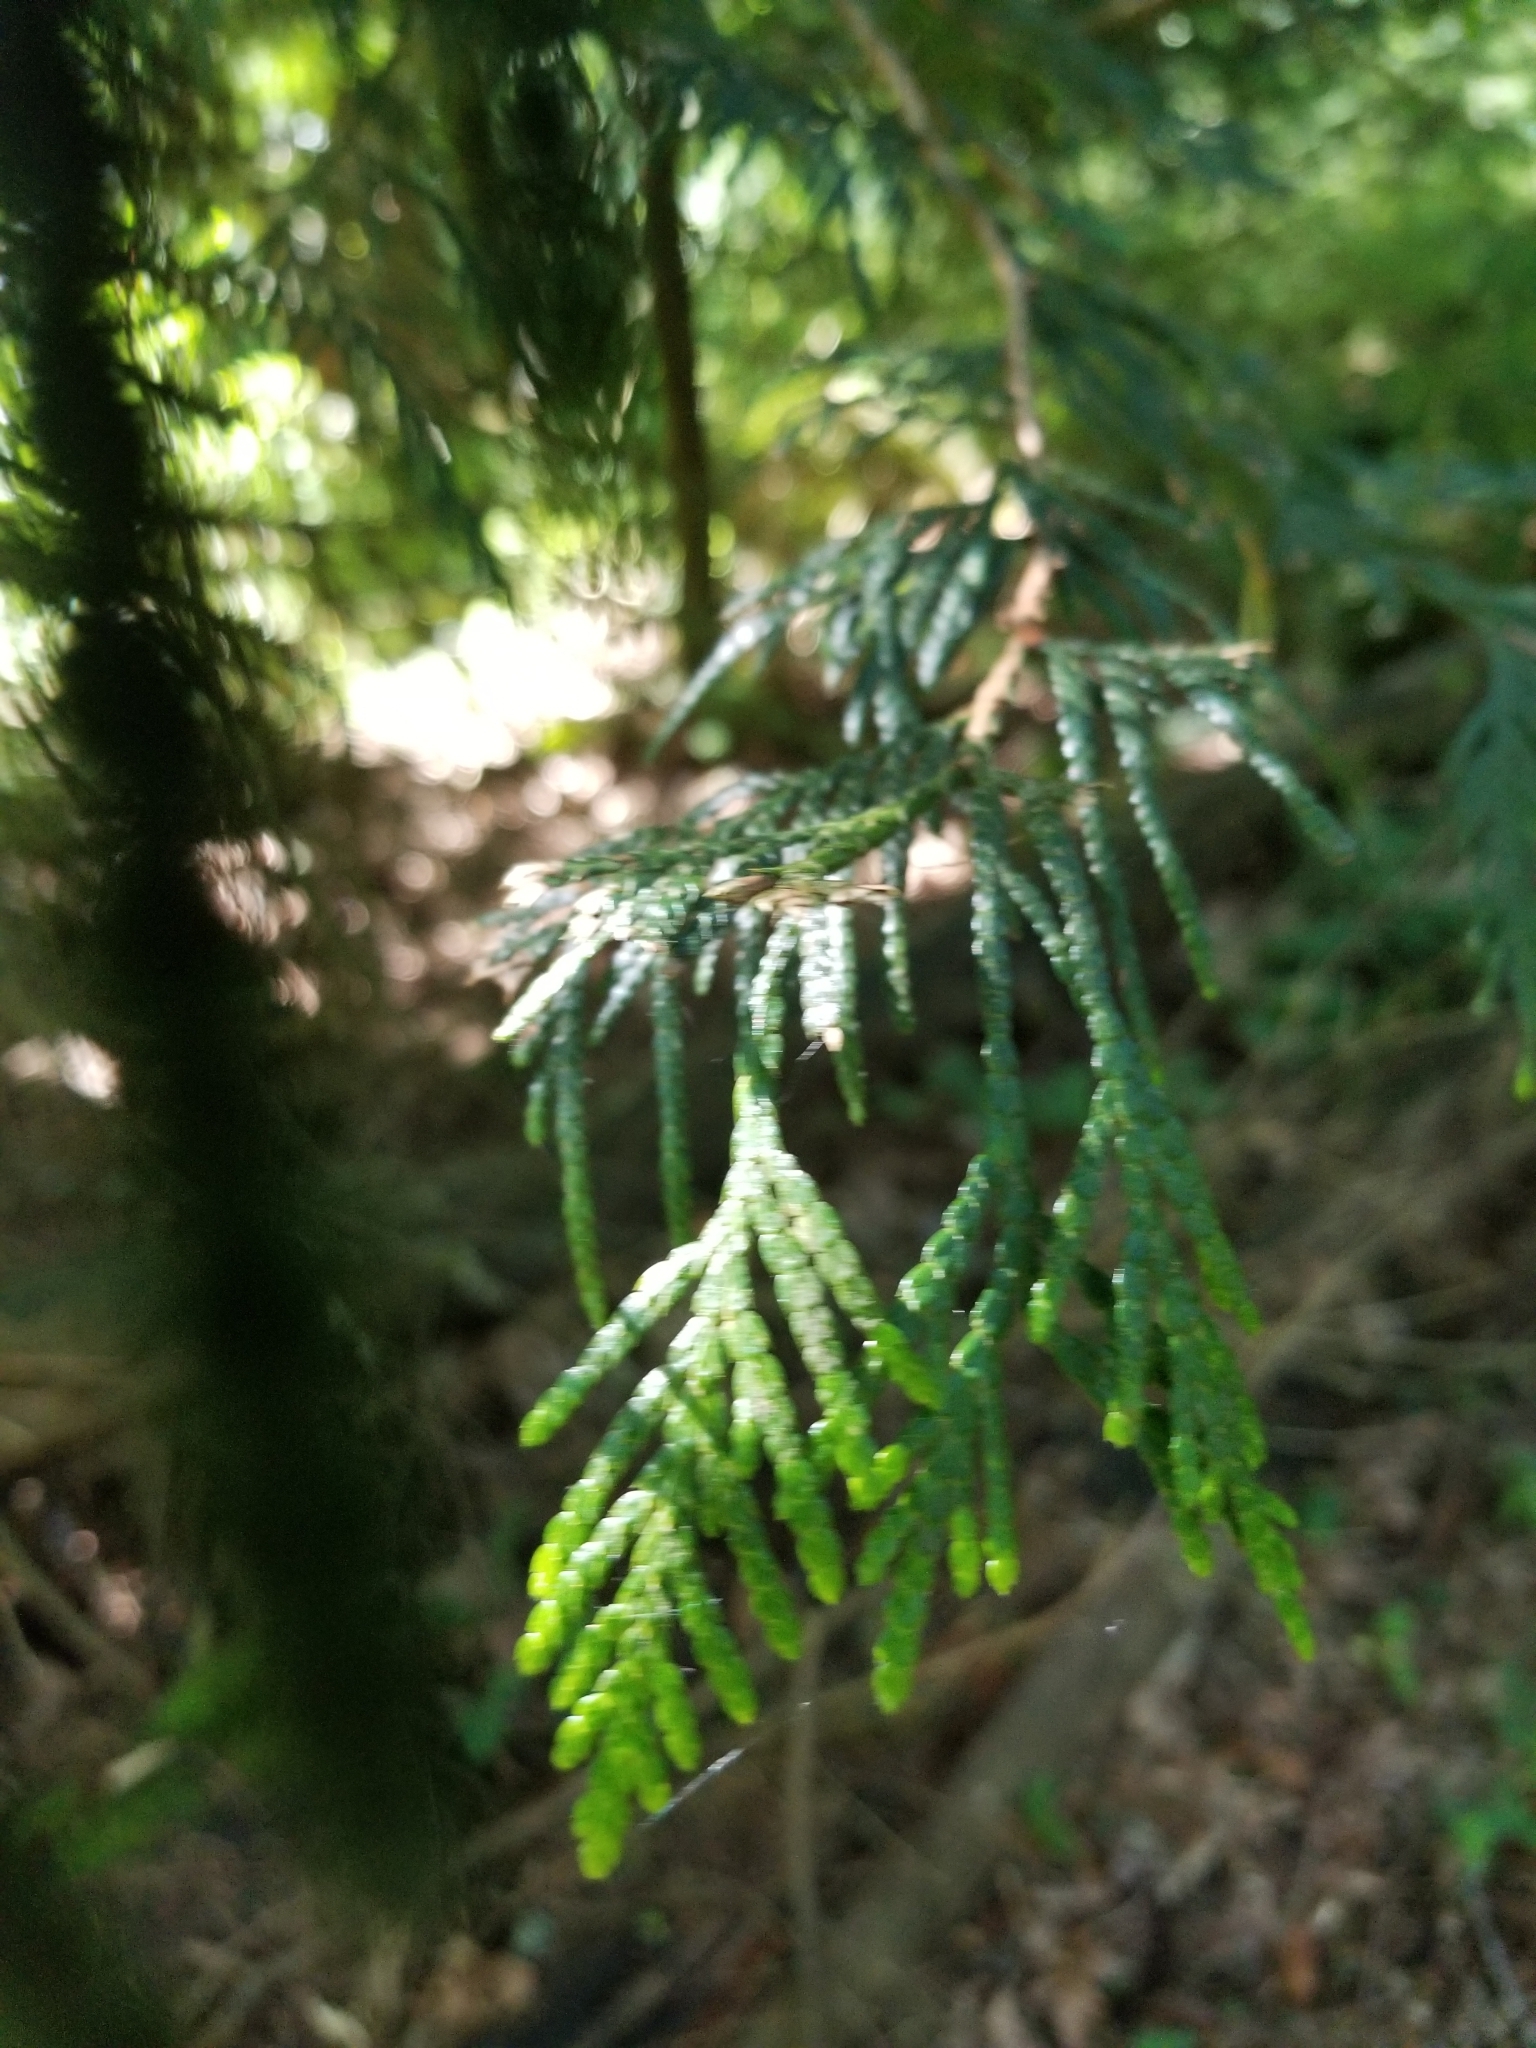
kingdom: Plantae
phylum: Tracheophyta
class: Pinopsida
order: Pinales
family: Cupressaceae
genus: Thuja
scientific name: Thuja plicata
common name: Western red-cedar
